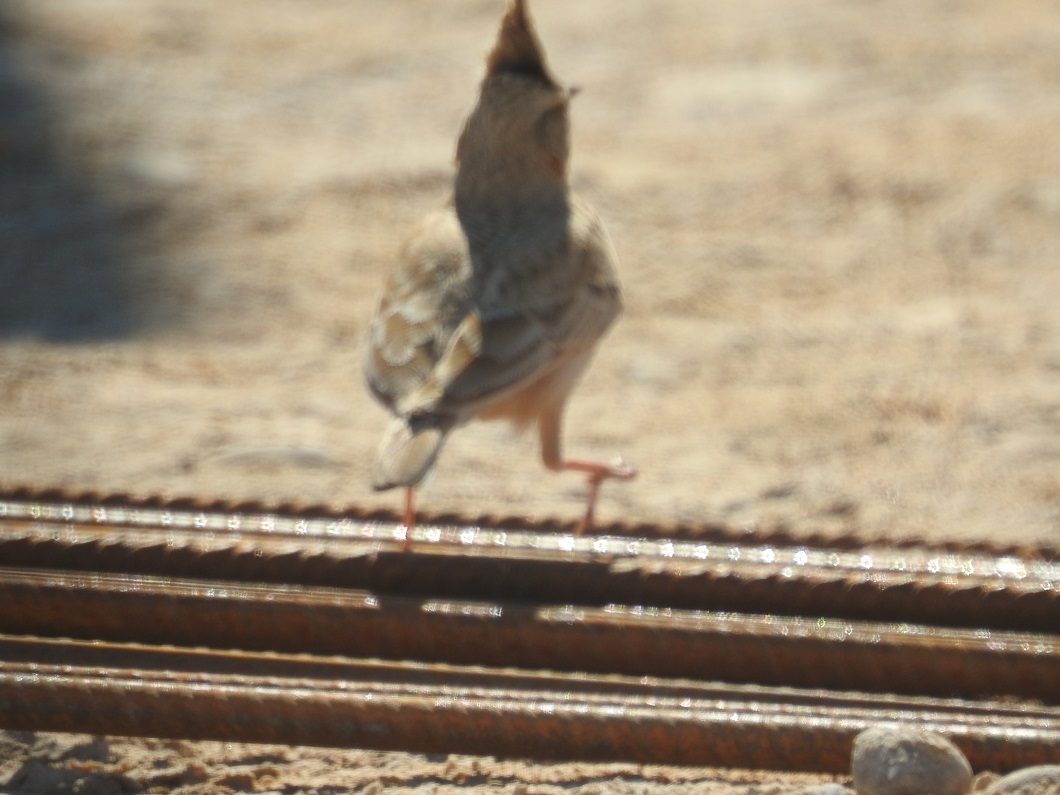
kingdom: Animalia
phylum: Chordata
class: Aves
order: Passeriformes
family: Alaudidae
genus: Galerida
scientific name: Galerida cristata
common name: Crested lark
